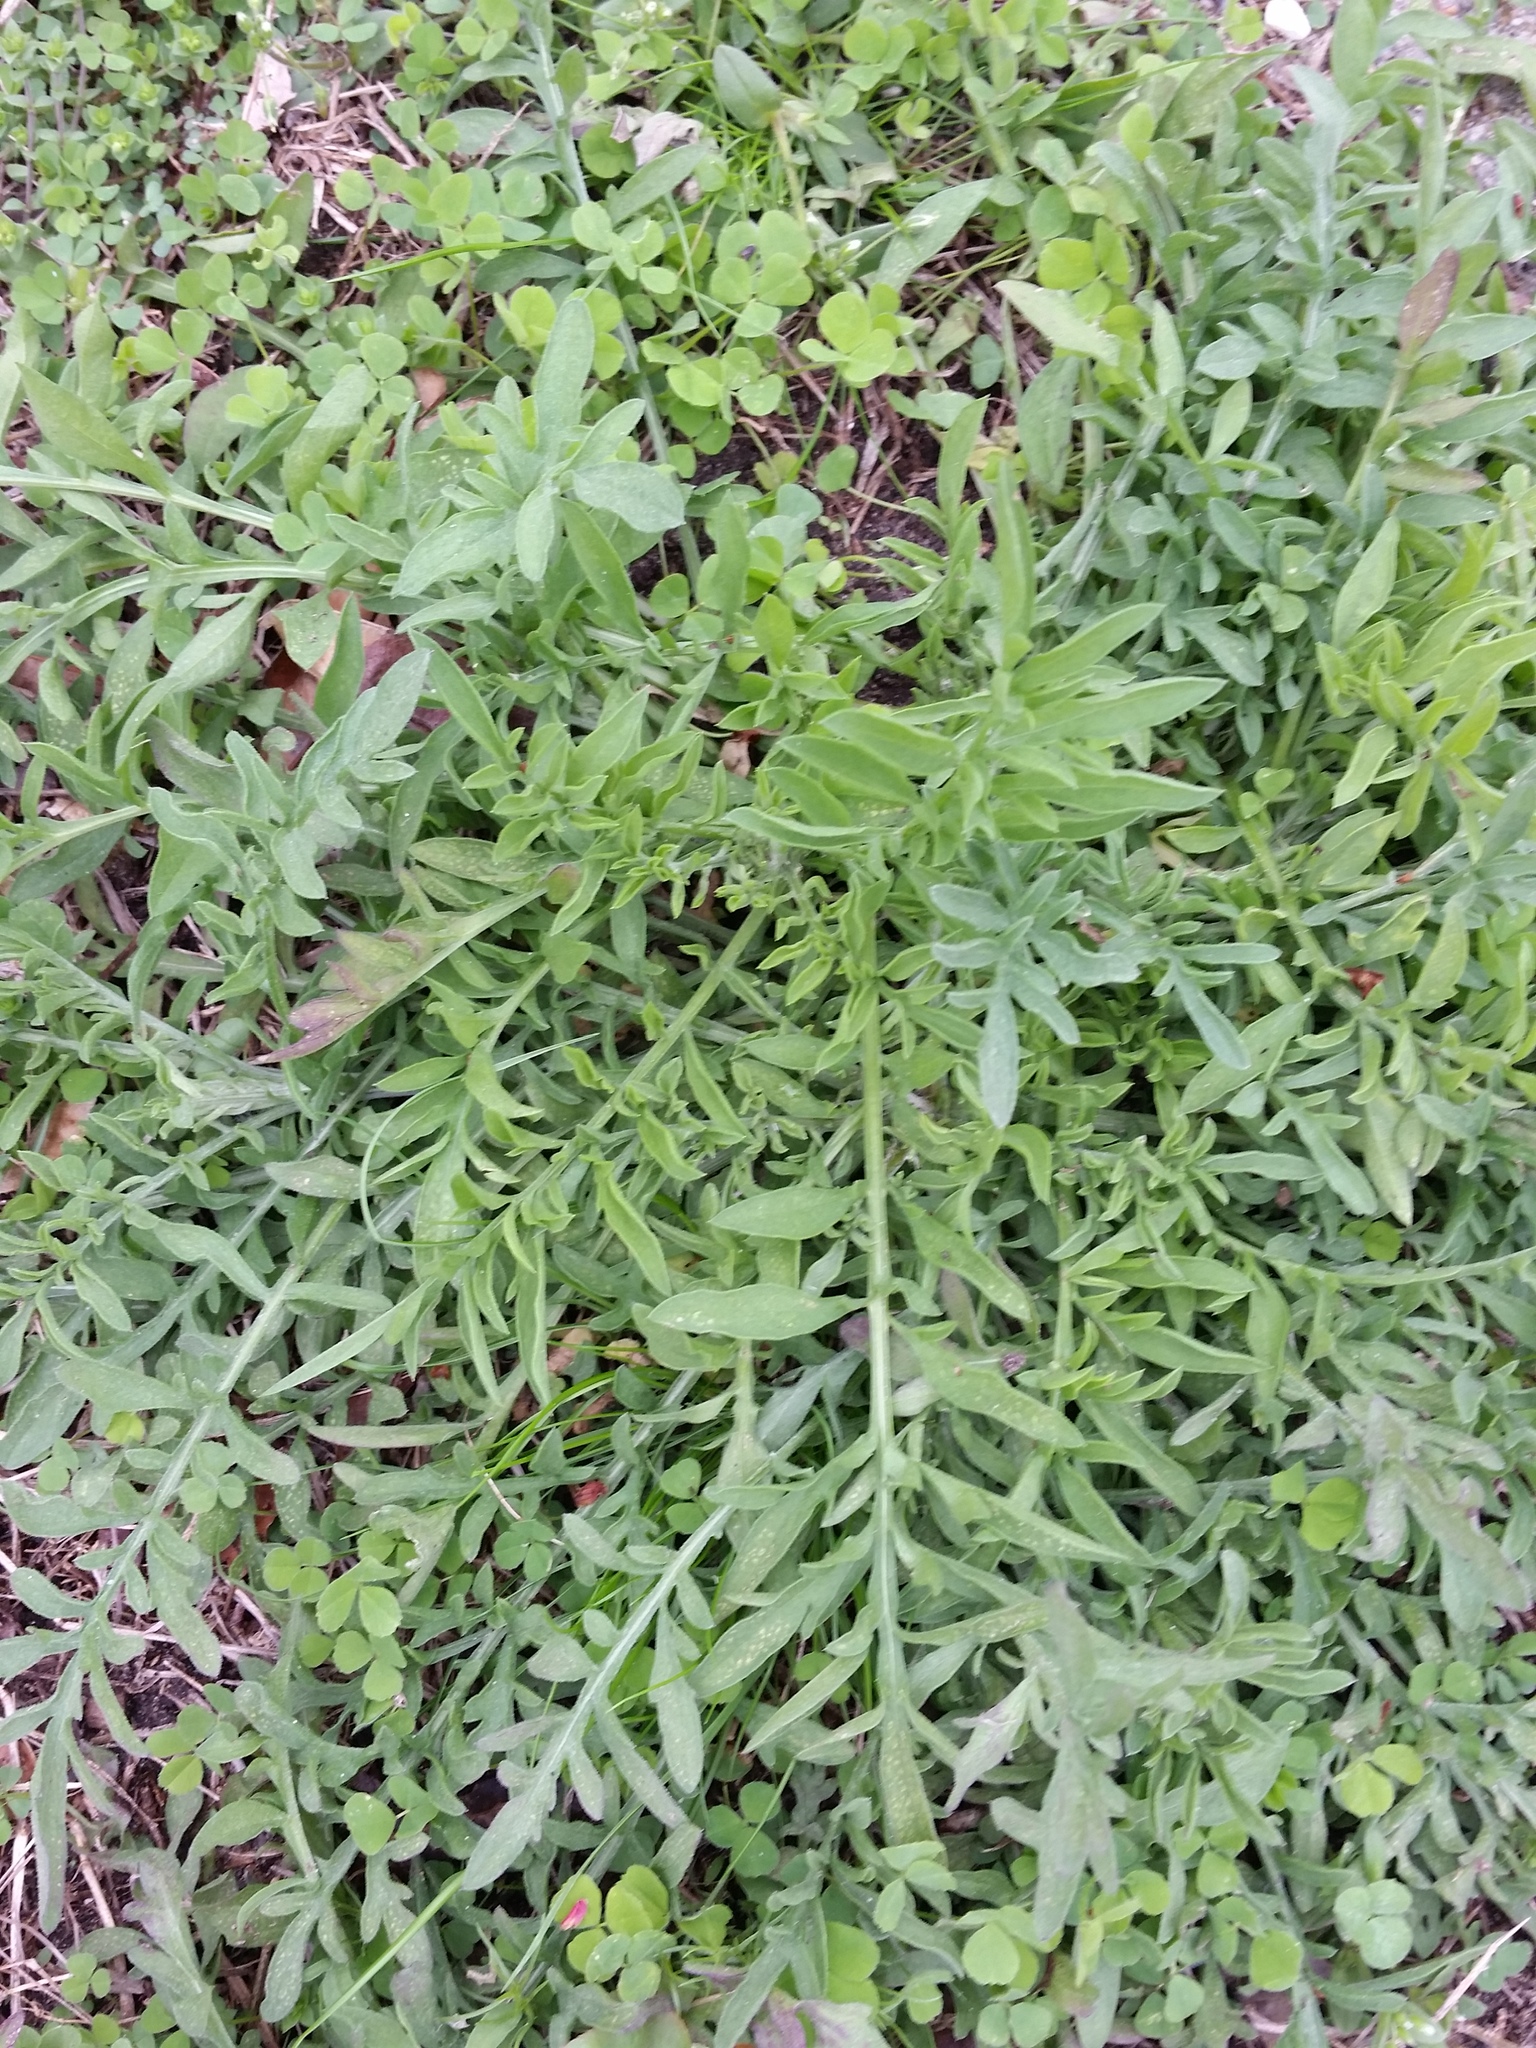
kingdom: Plantae
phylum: Tracheophyta
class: Magnoliopsida
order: Asterales
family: Asteraceae
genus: Centaurea
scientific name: Centaurea stoebe
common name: Spotted knapweed
